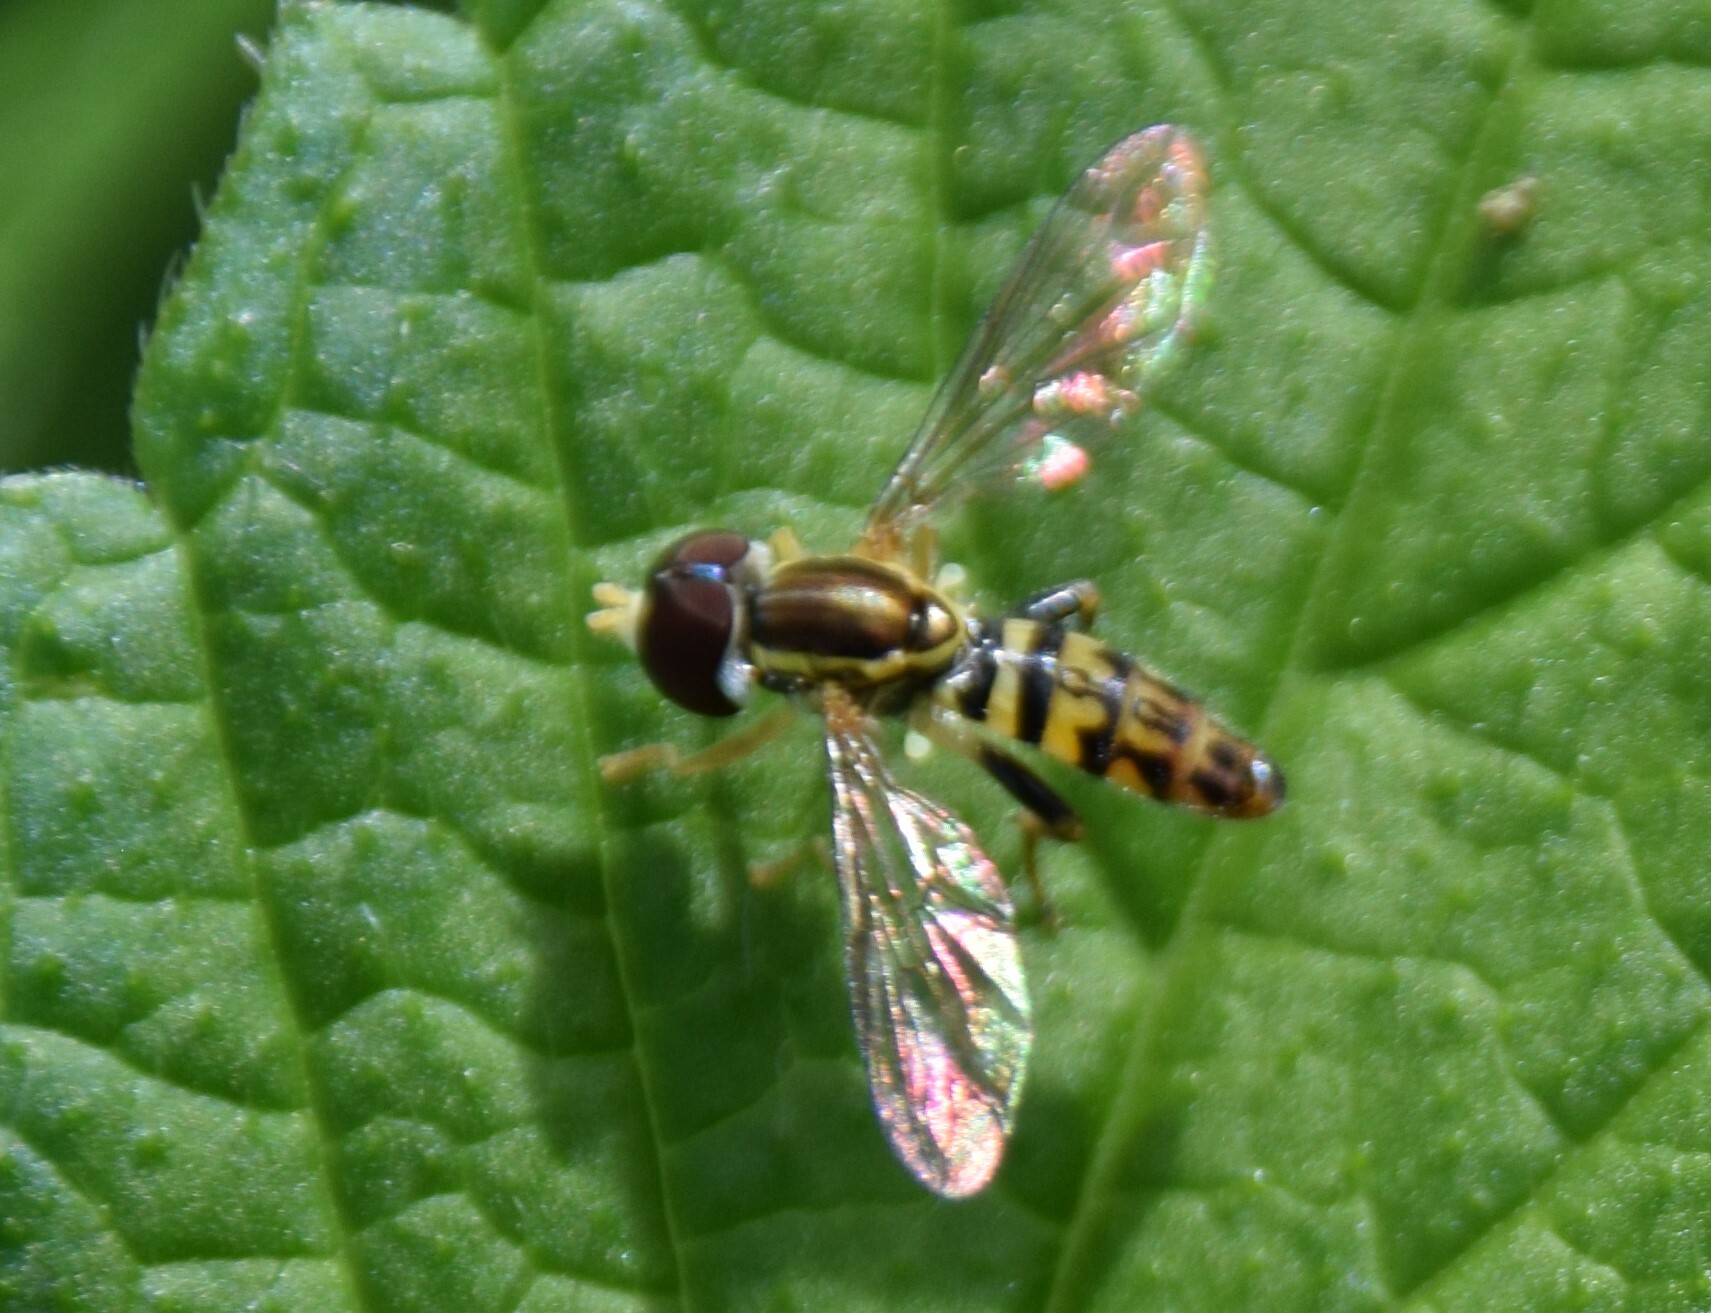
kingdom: Animalia
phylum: Arthropoda
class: Insecta
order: Diptera
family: Syrphidae
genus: Toxomerus
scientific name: Toxomerus geminatus
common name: Eastern calligrapher
